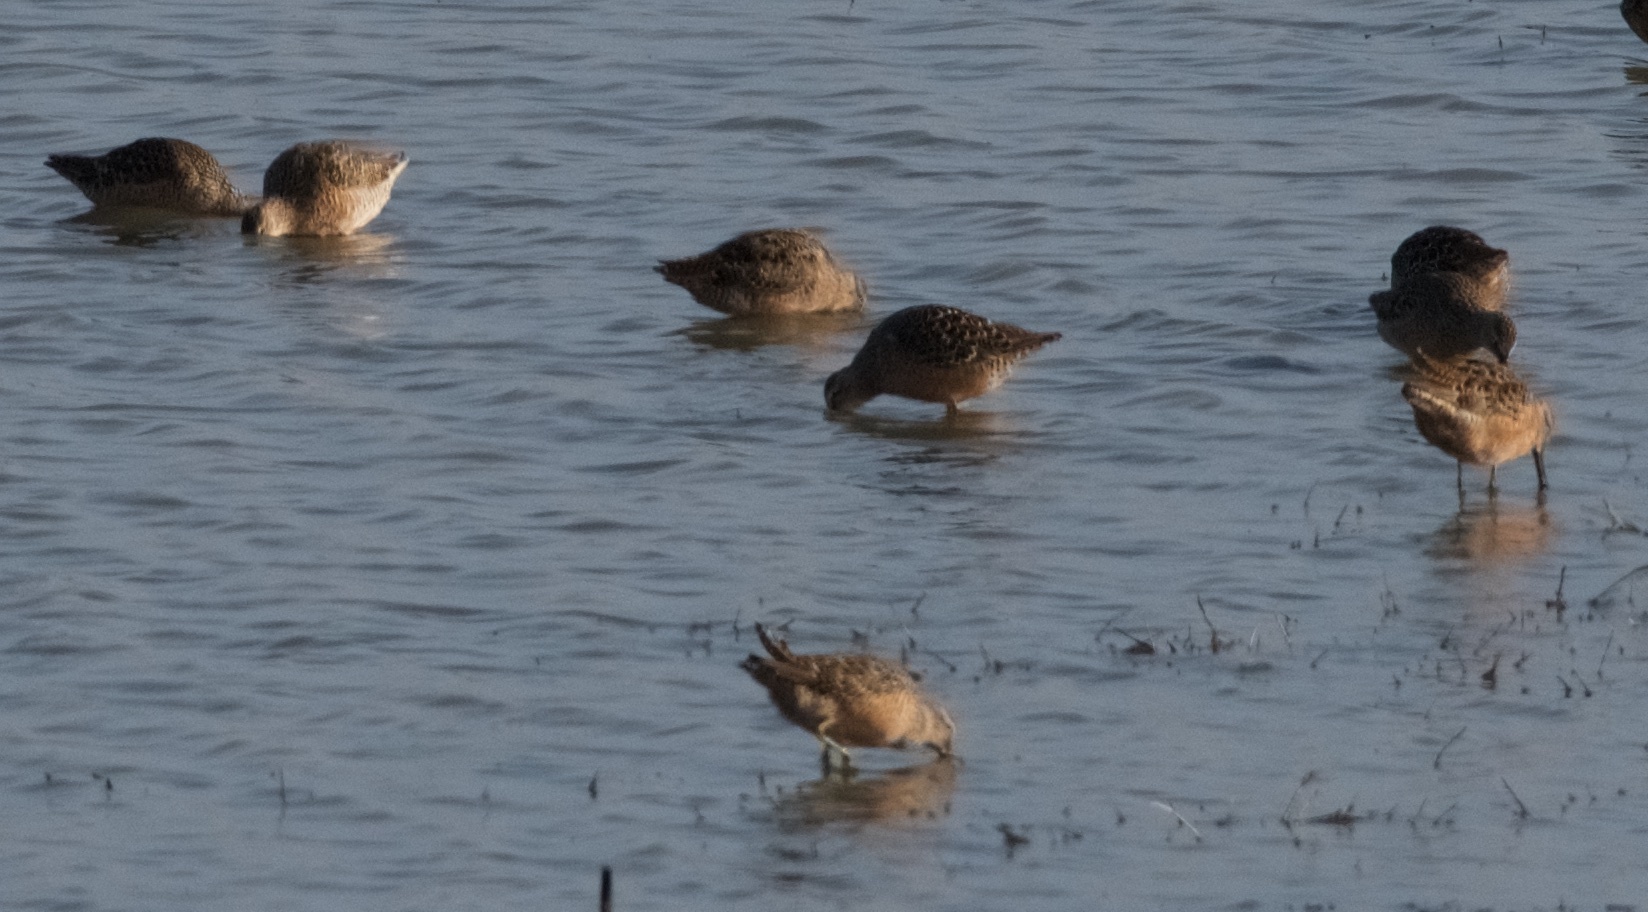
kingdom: Animalia
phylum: Chordata
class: Aves
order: Charadriiformes
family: Scolopacidae
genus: Limnodromus
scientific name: Limnodromus scolopaceus
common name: Long-billed dowitcher
